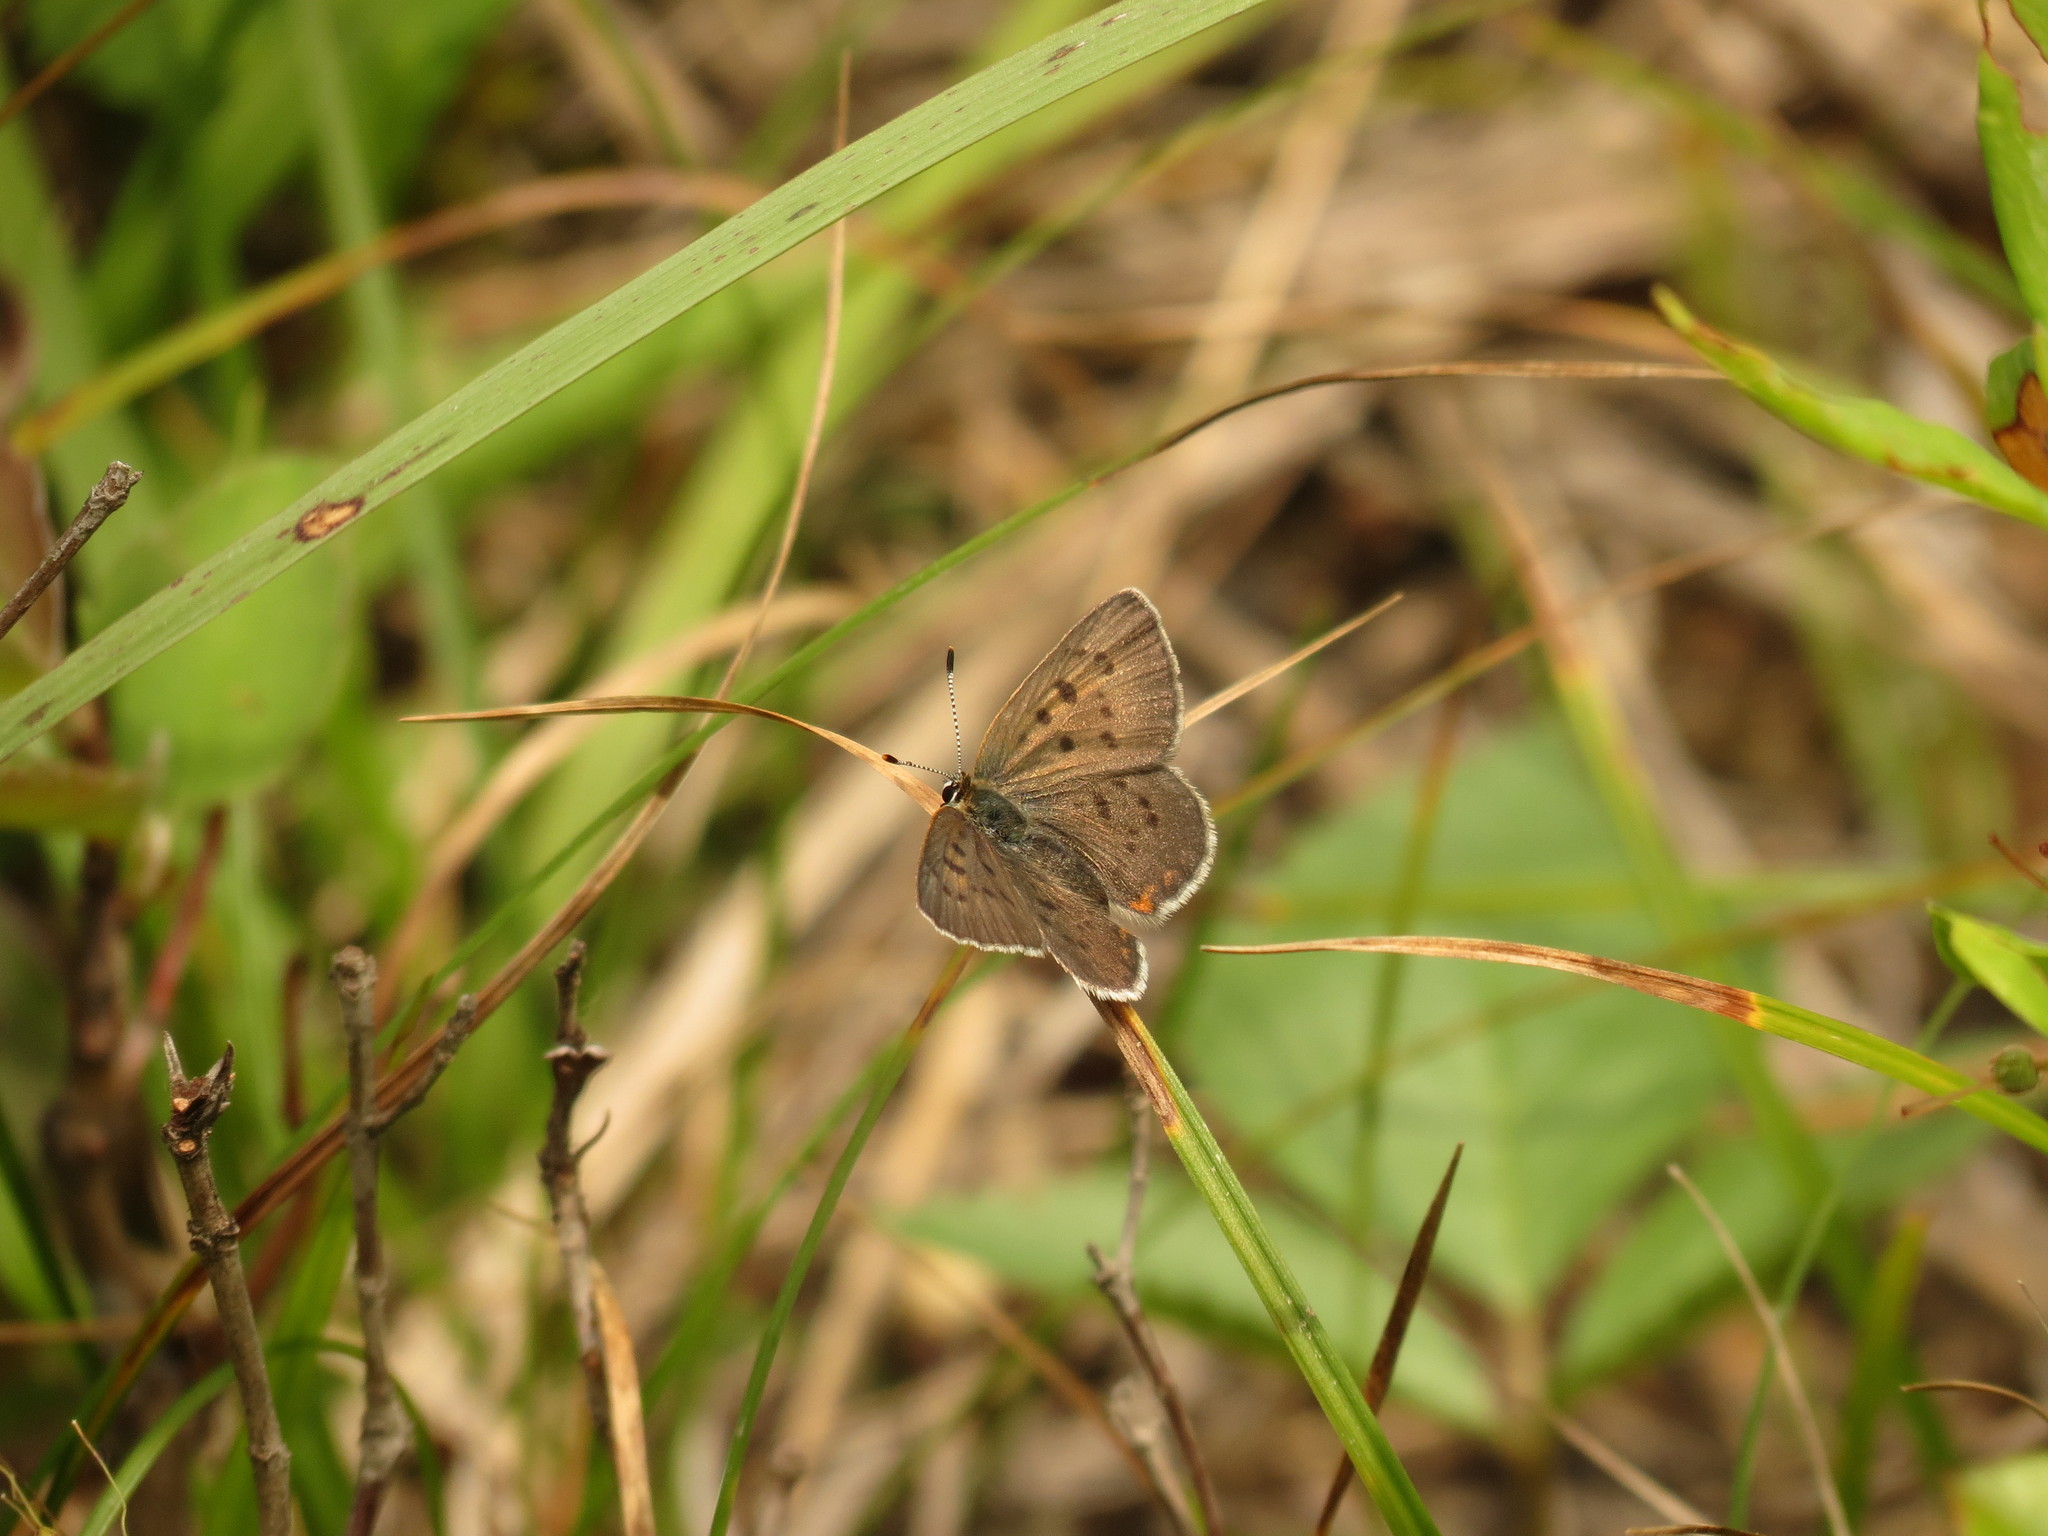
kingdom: Animalia
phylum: Arthropoda
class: Insecta
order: Lepidoptera
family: Lycaenidae
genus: Tharsalea
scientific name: Tharsalea epixanthe
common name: Bog copper
